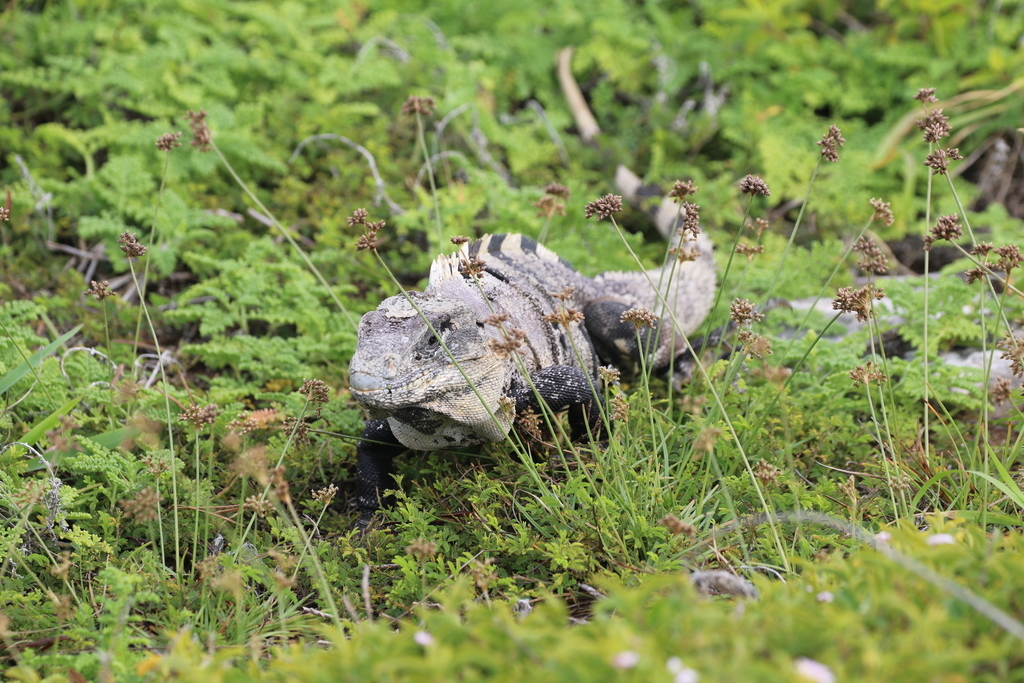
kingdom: Animalia
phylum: Chordata
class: Squamata
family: Iguanidae
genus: Ctenosaura
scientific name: Ctenosaura similis
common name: Black spiny-tailed iguana
